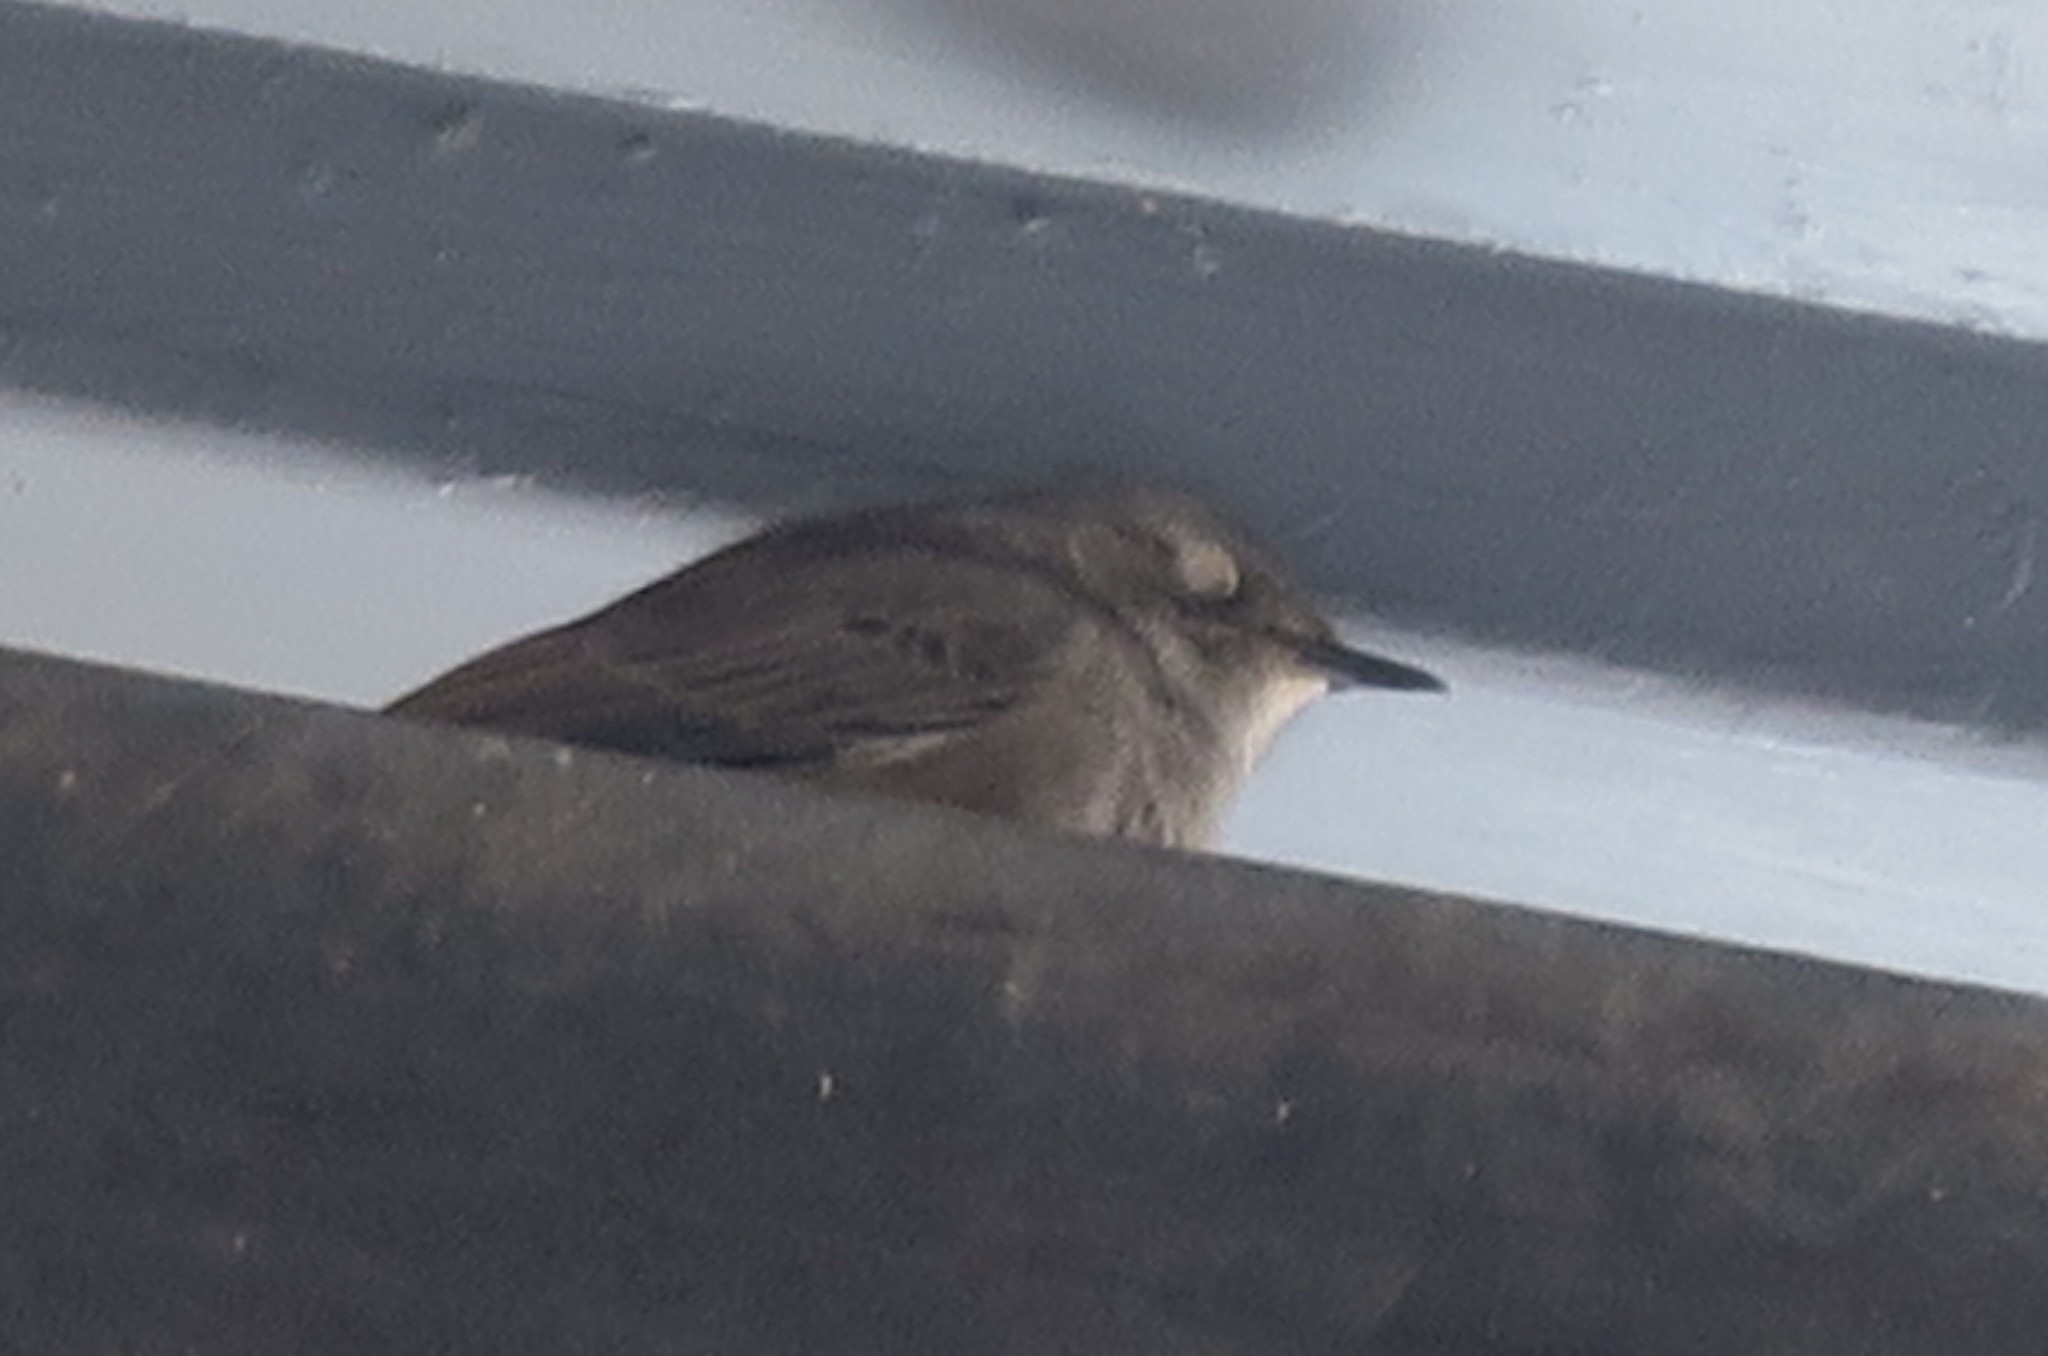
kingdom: Animalia
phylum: Chordata
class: Aves
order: Passeriformes
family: Muscicapidae
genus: Oenanthe
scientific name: Oenanthe familiaris
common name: Familiar chat
